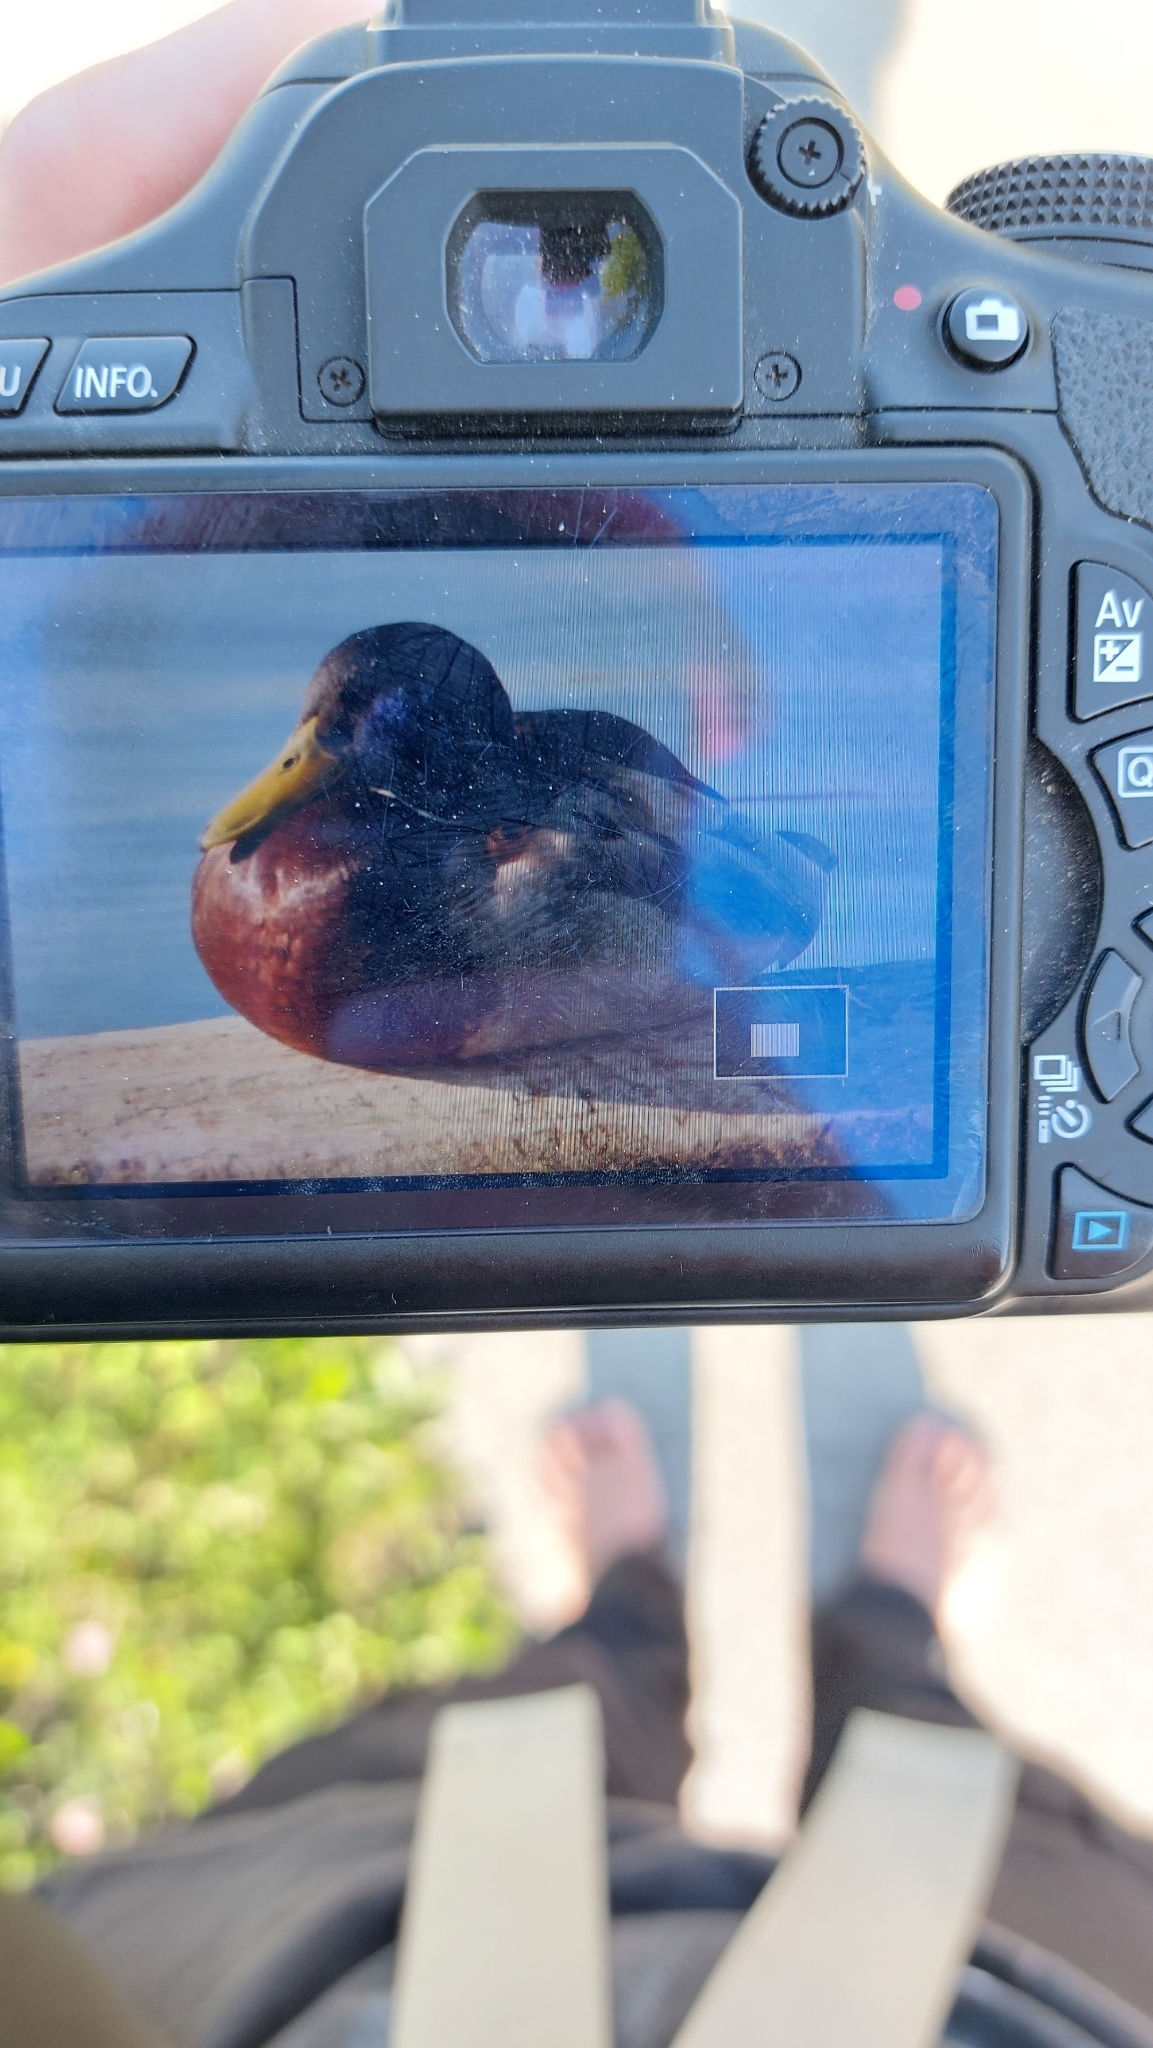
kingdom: Animalia
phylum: Chordata
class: Aves
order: Anseriformes
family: Anatidae
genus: Anas
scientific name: Anas platyrhynchos
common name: Mallard
